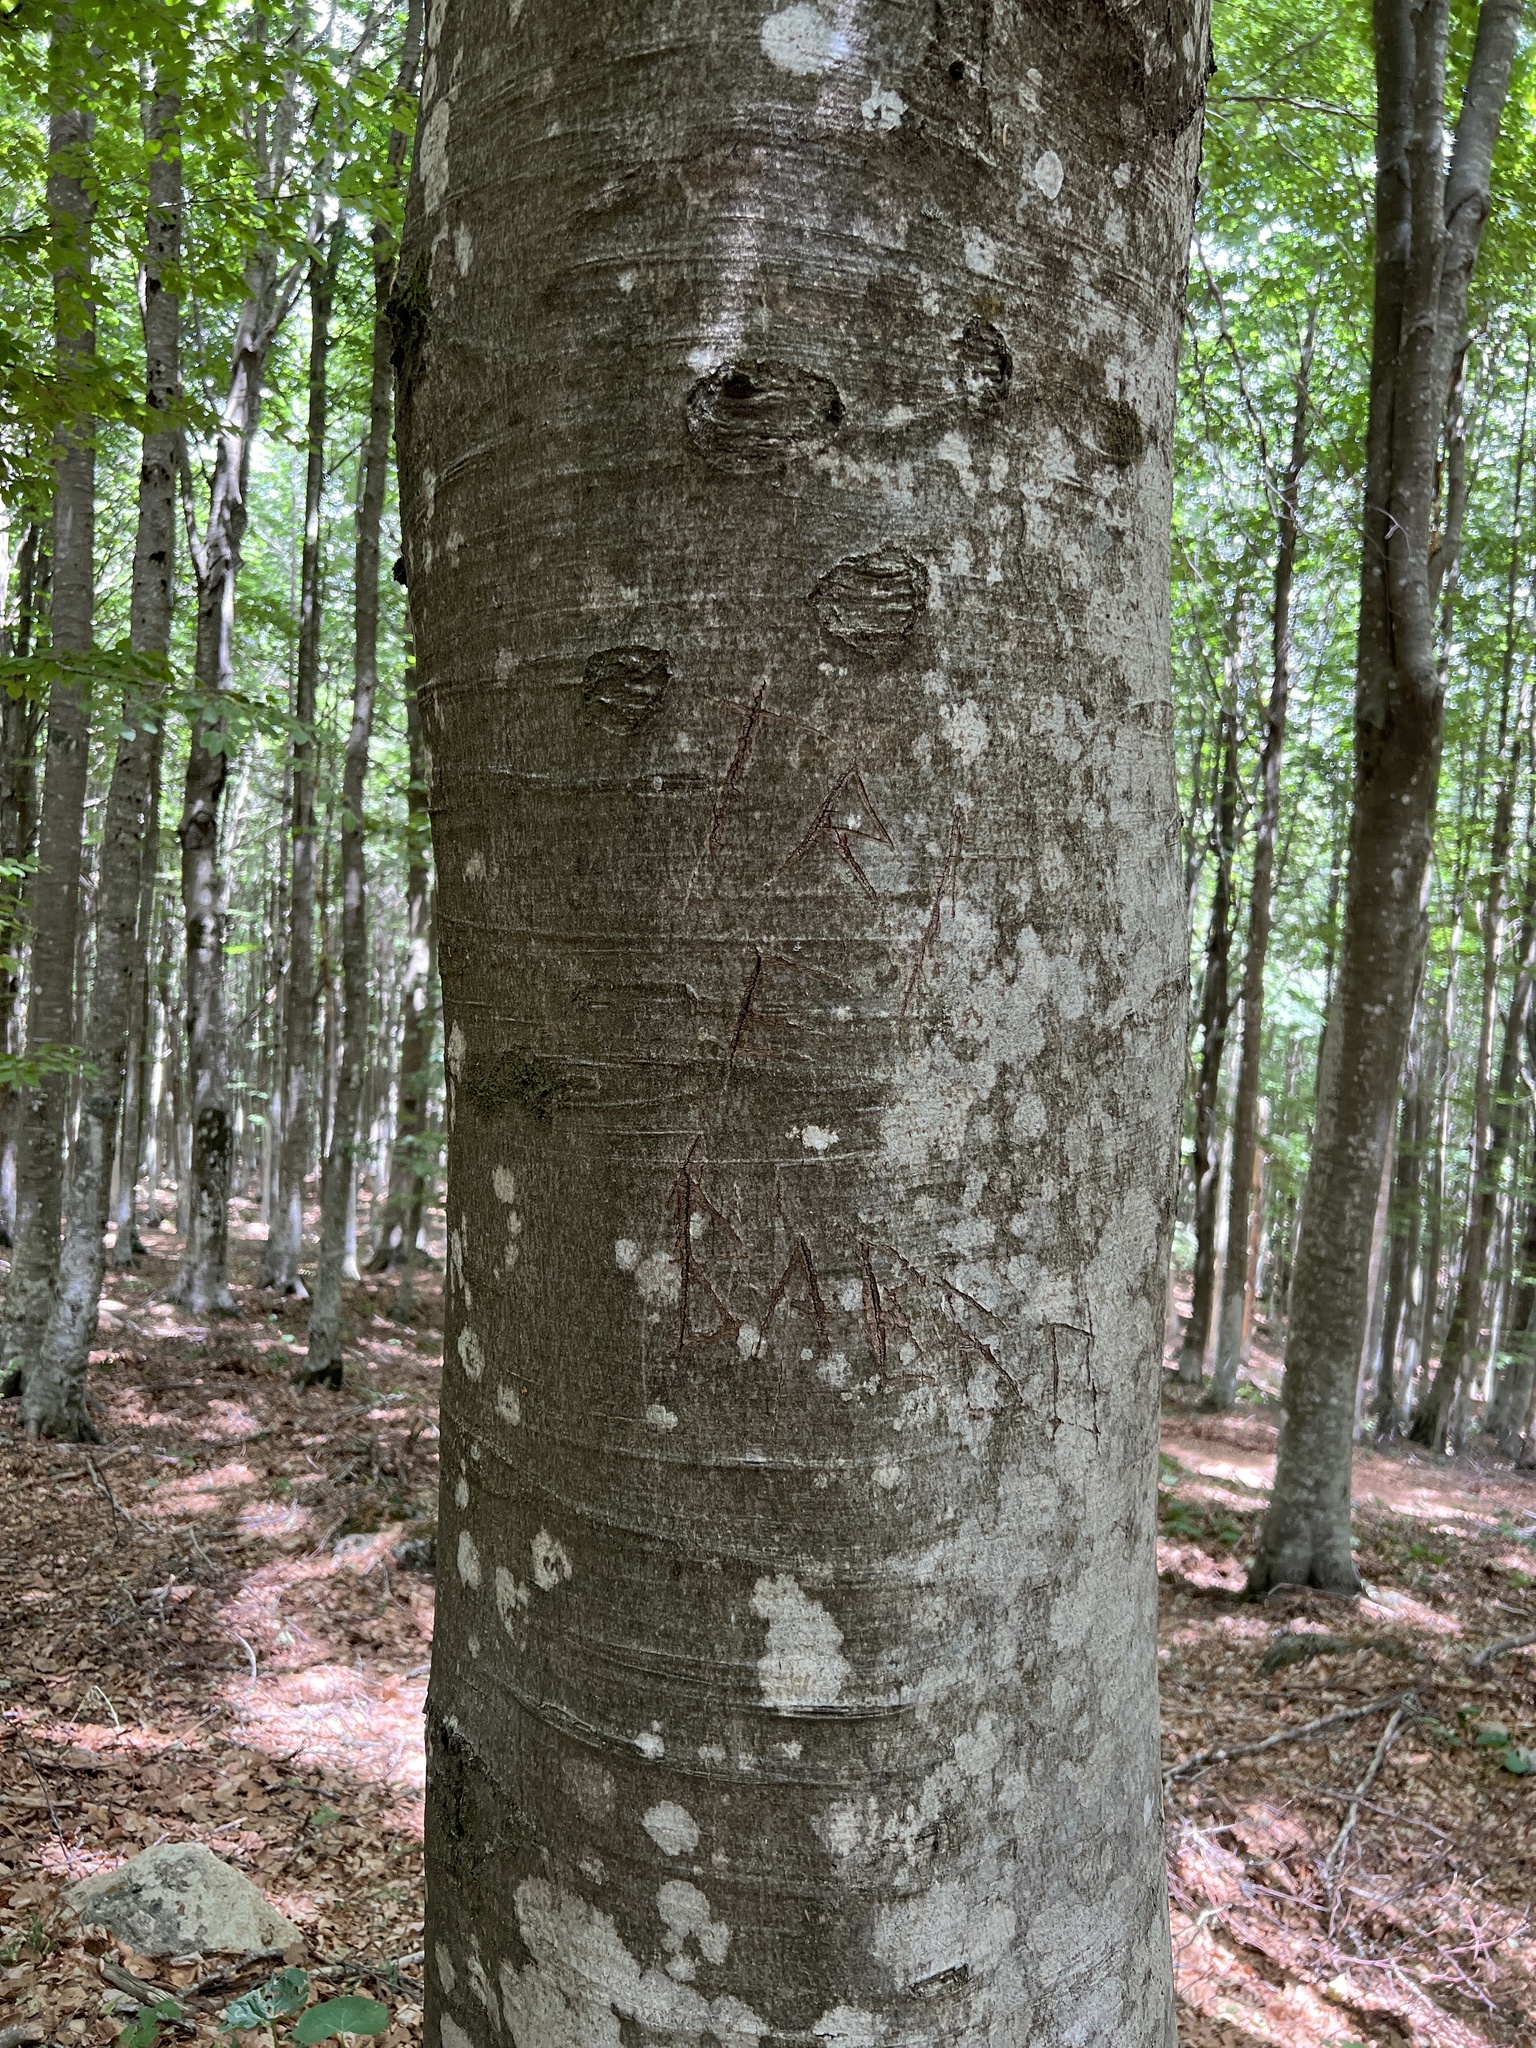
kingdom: Plantae
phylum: Tracheophyta
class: Magnoliopsida
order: Fagales
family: Fagaceae
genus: Fagus
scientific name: Fagus sylvatica
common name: Beech
